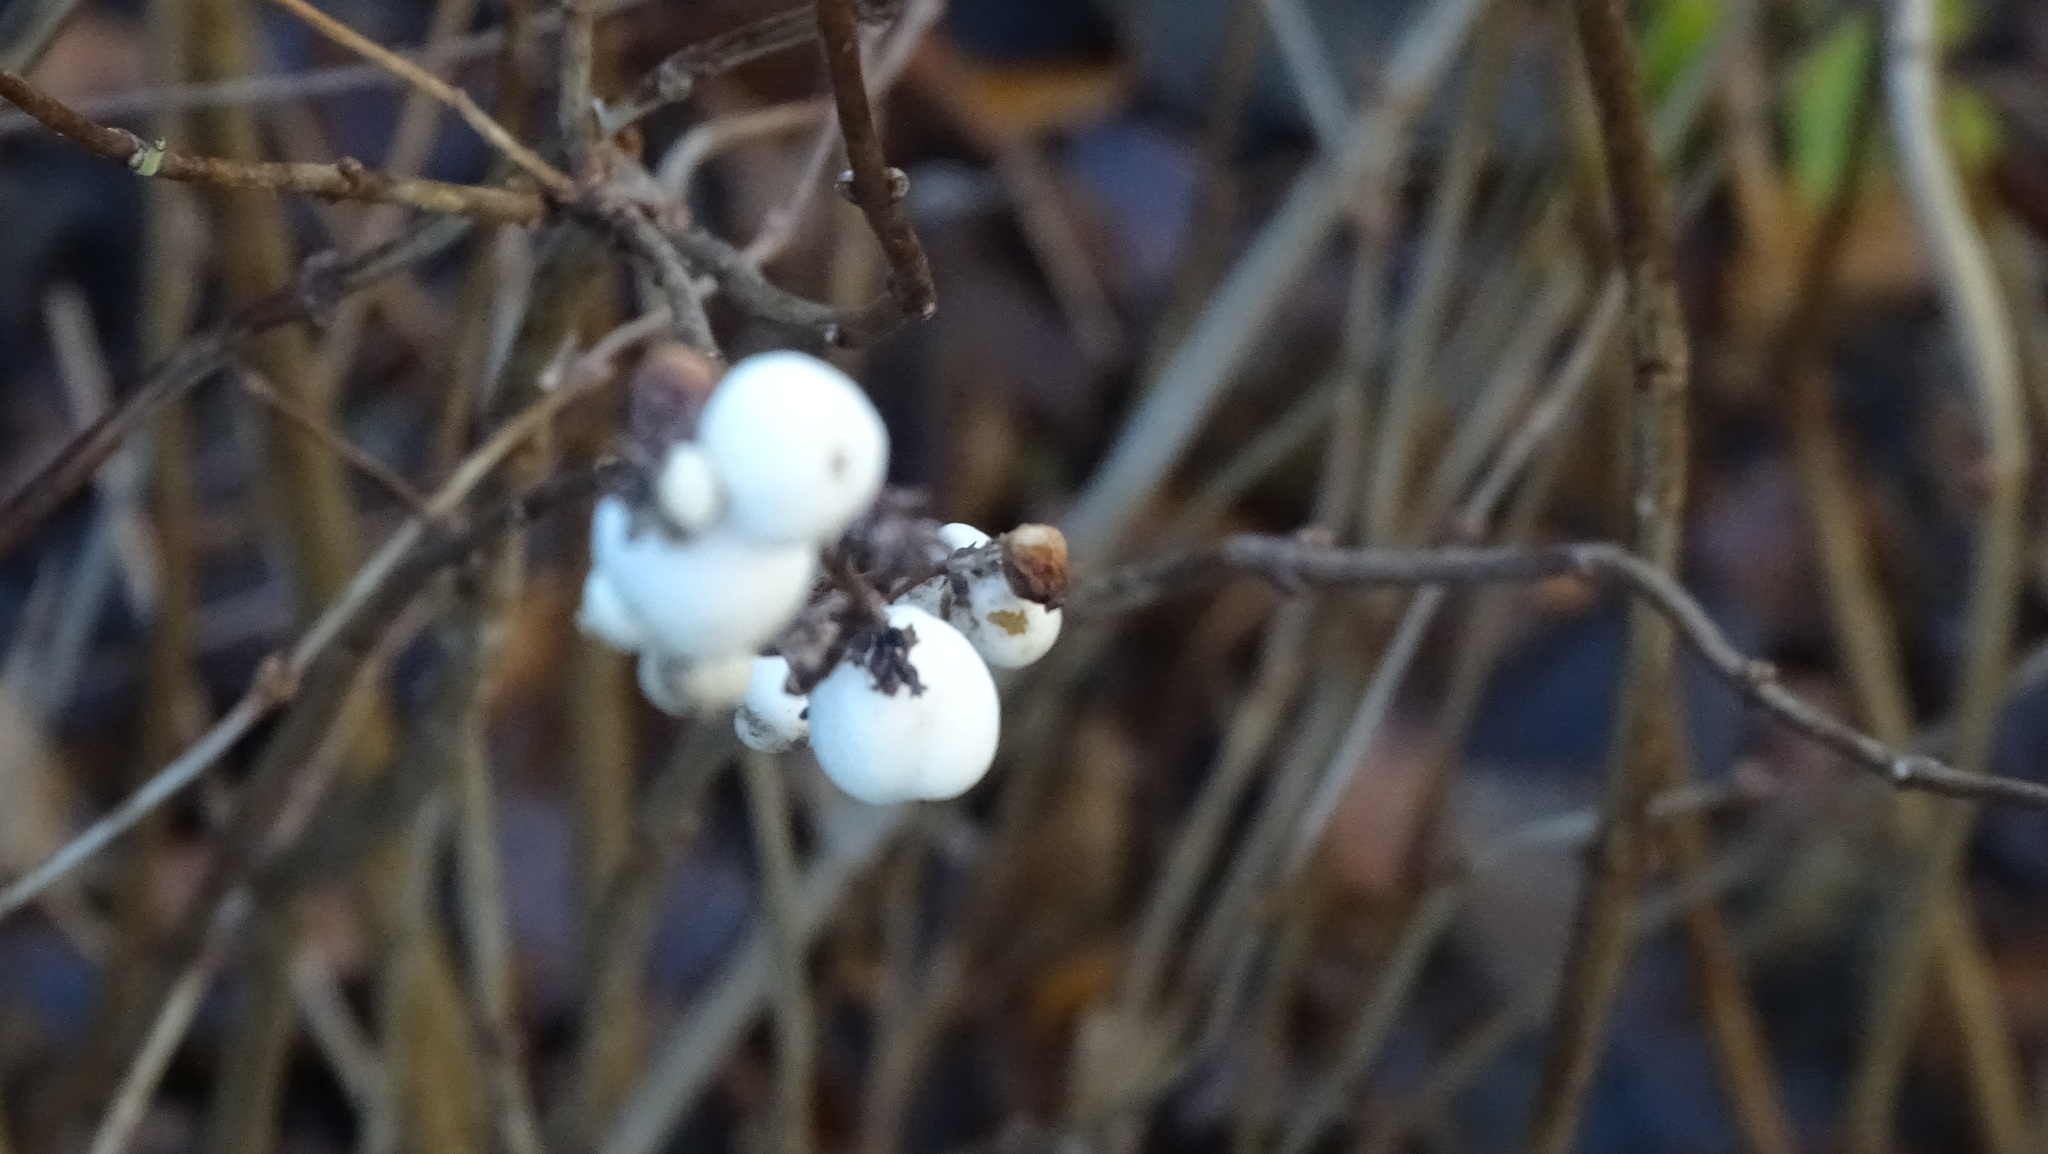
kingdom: Plantae
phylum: Tracheophyta
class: Magnoliopsida
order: Dipsacales
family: Caprifoliaceae
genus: Symphoricarpos
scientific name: Symphoricarpos albus
